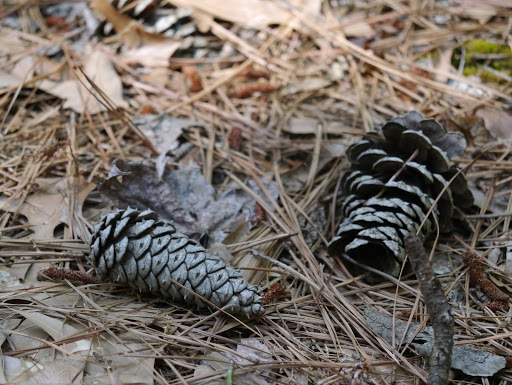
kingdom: Plantae
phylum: Tracheophyta
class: Pinopsida
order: Pinales
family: Pinaceae
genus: Pinus
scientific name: Pinus taeda
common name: Loblolly pine
